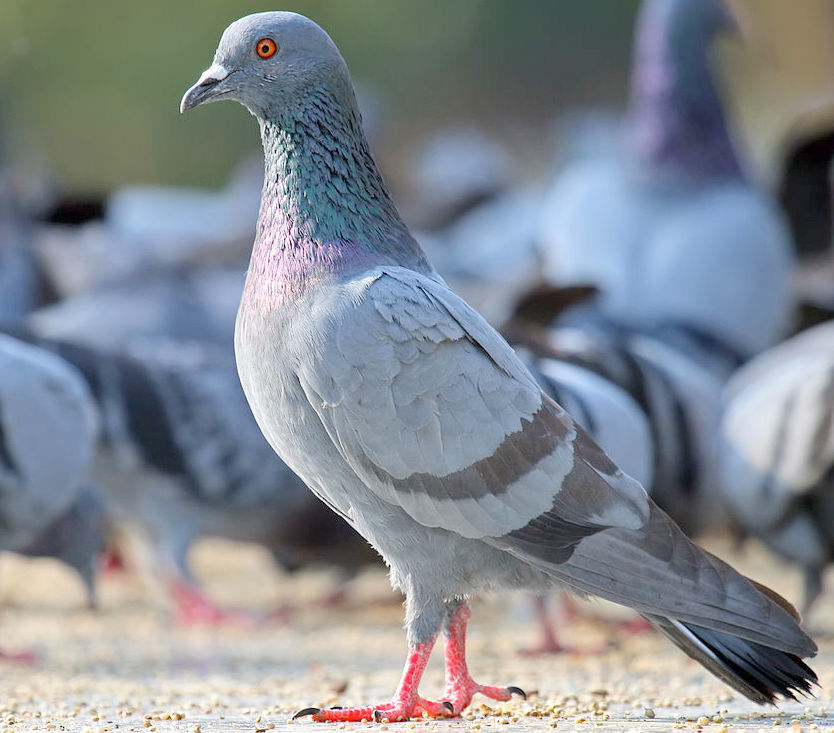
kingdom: Animalia
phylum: Chordata
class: Aves
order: Columbiformes
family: Columbidae
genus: Columba
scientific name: Columba livia
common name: Rock pigeon
